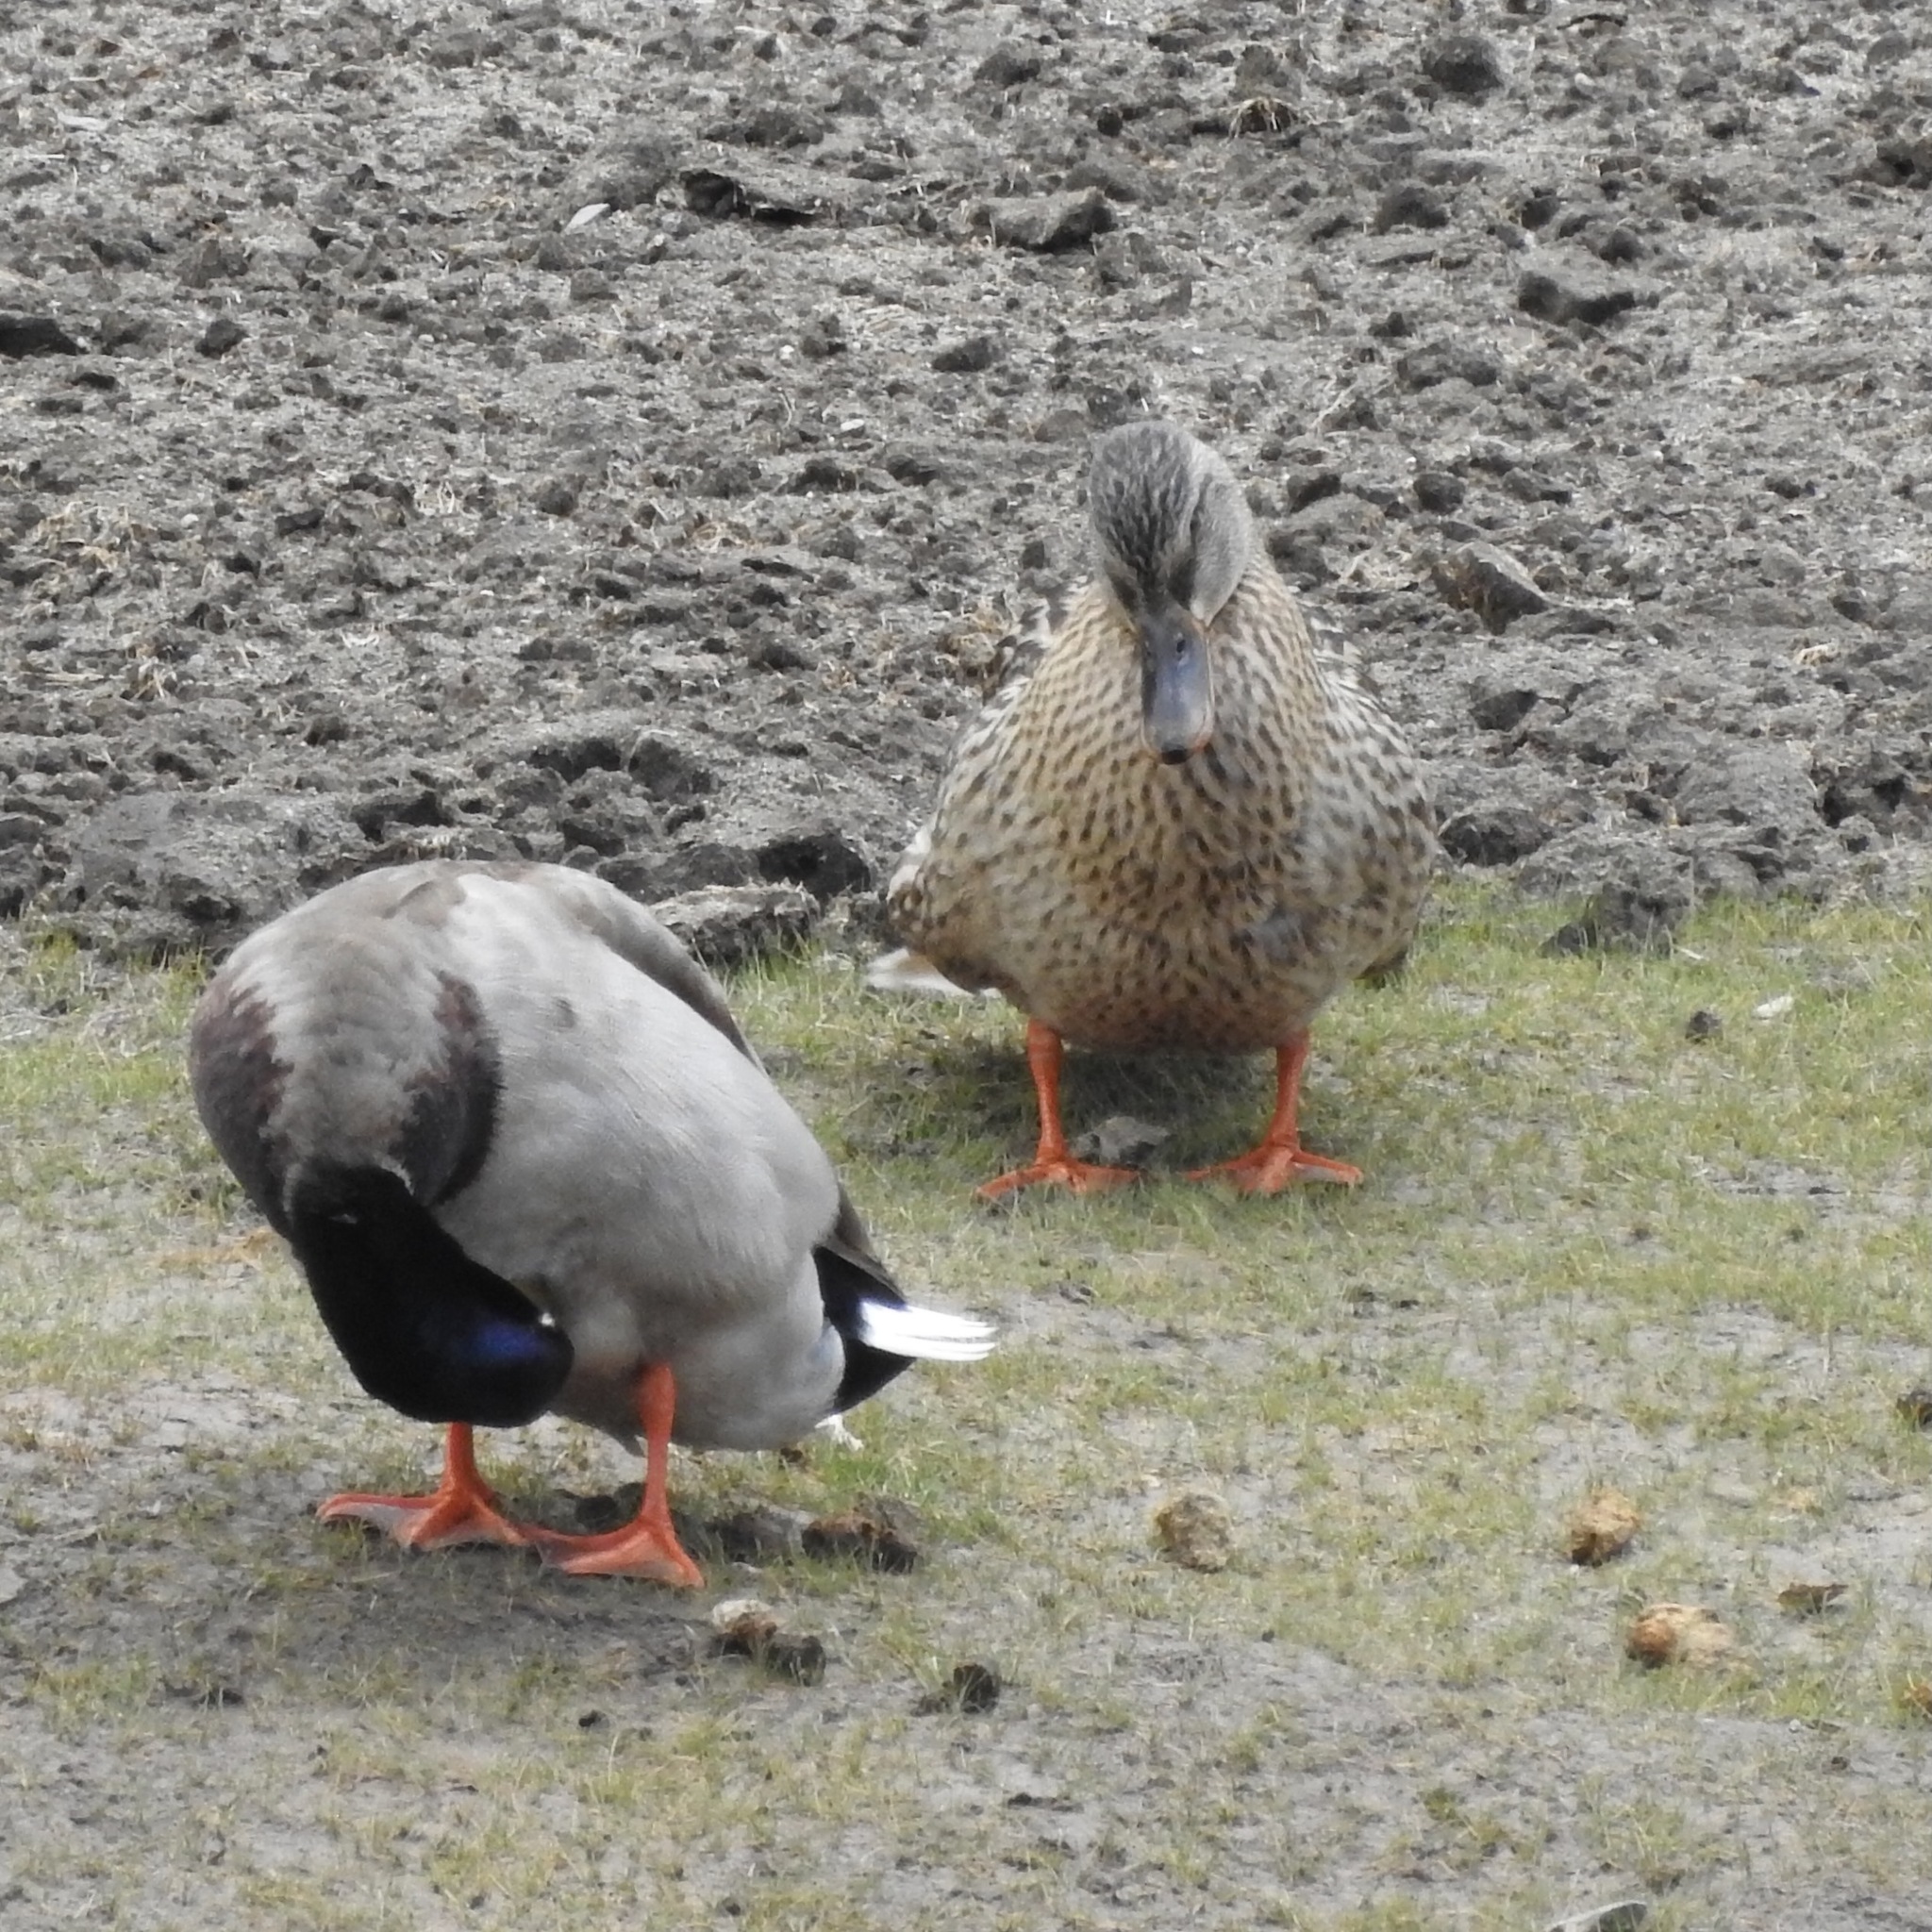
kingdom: Animalia
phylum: Chordata
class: Aves
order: Anseriformes
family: Anatidae
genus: Anas
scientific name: Anas platyrhynchos
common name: Mallard
